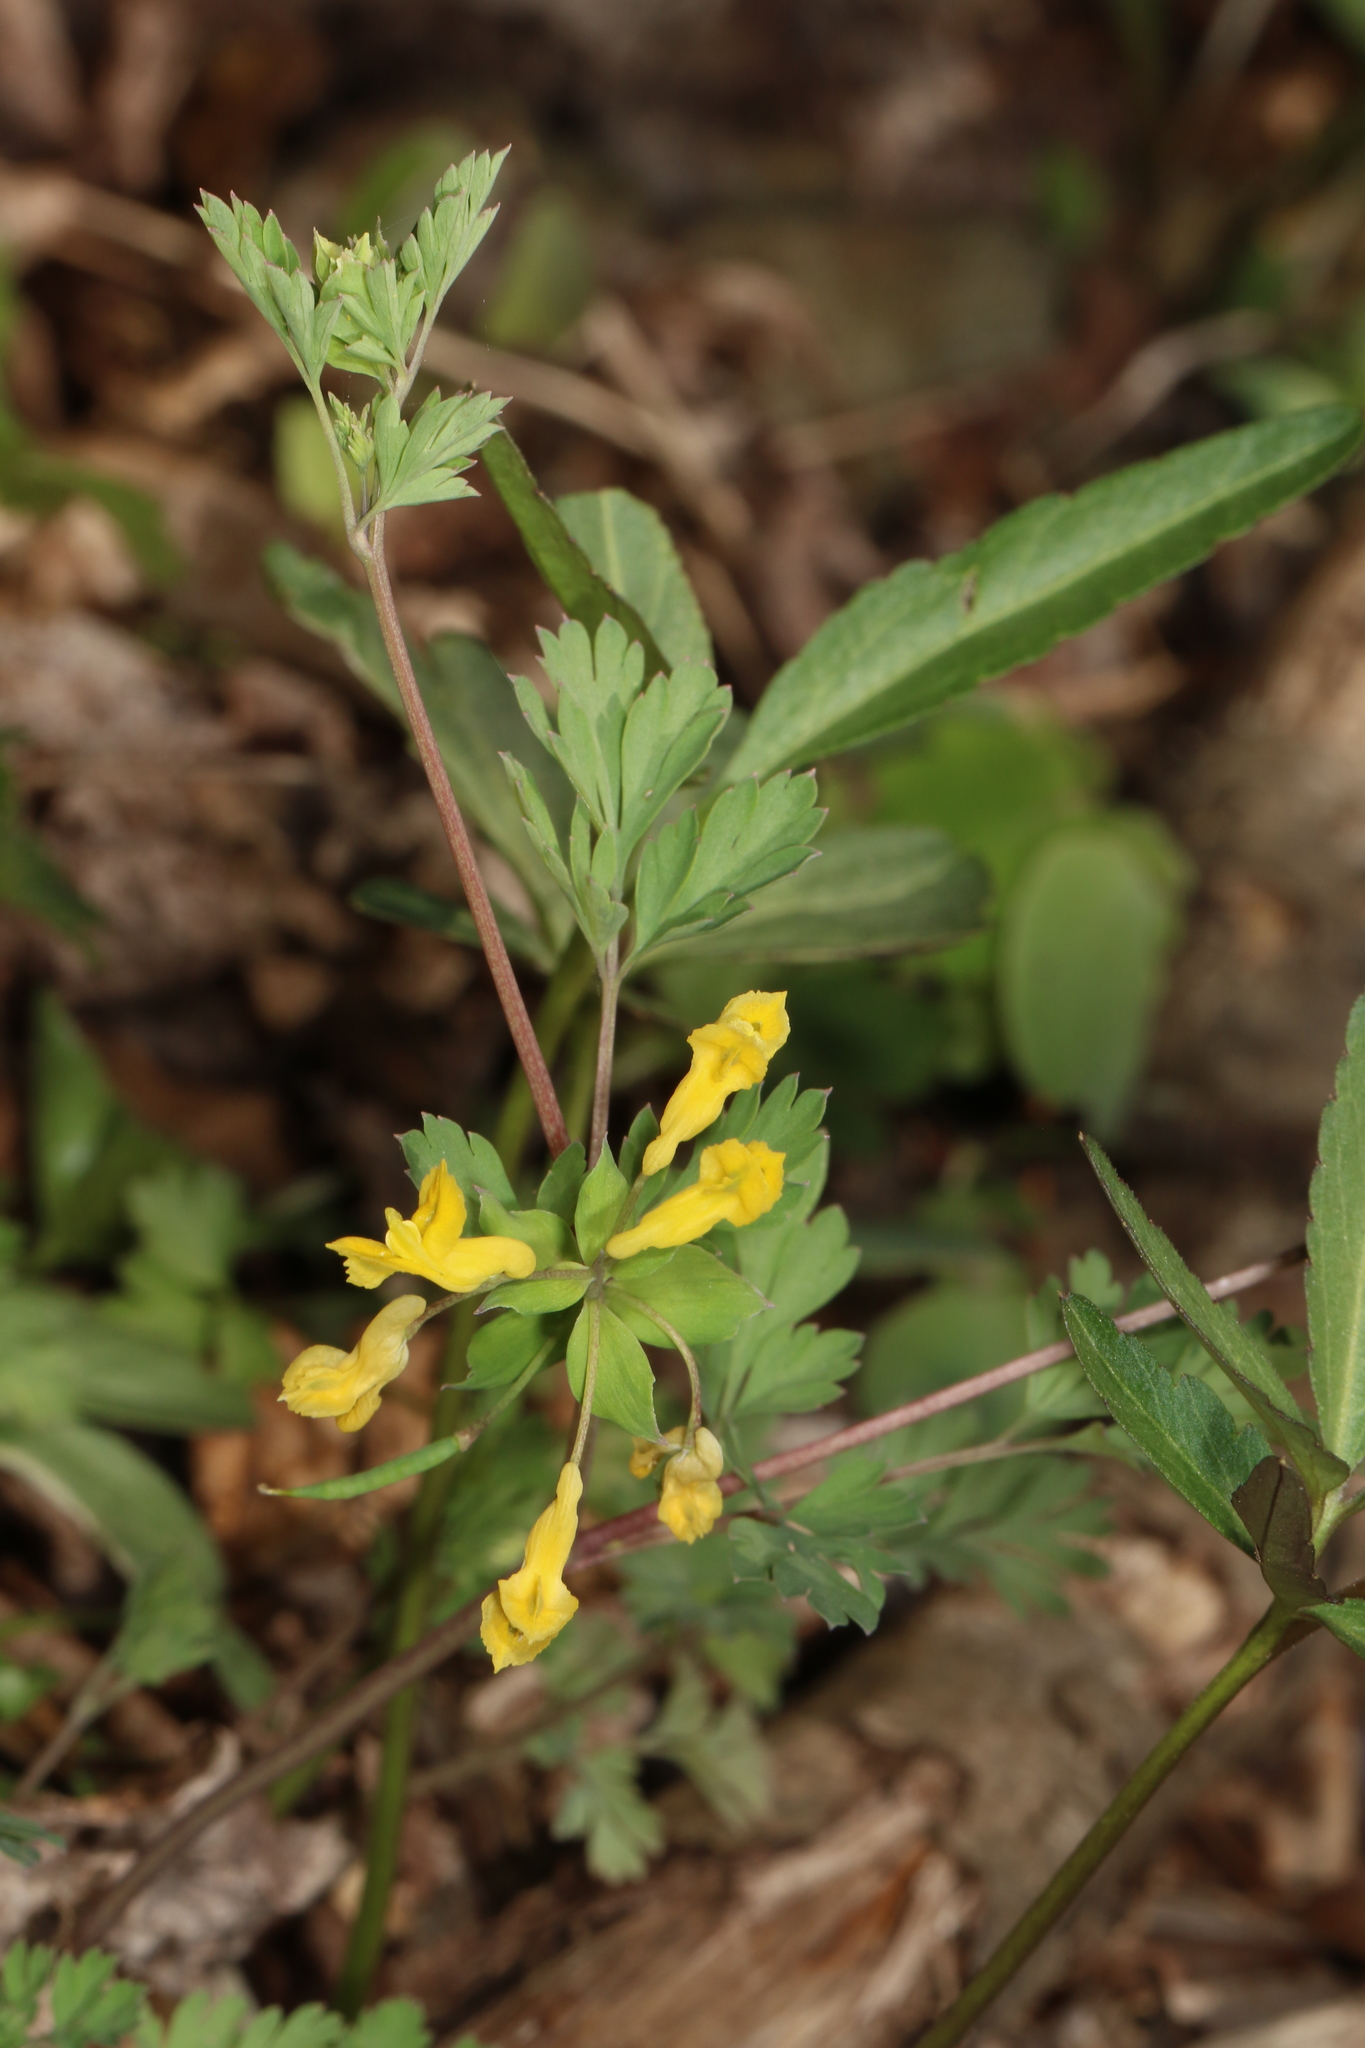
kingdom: Plantae
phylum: Tracheophyta
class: Magnoliopsida
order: Ranunculales
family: Papaveraceae
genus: Corydalis
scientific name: Corydalis flavula
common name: Yellow corydalis
